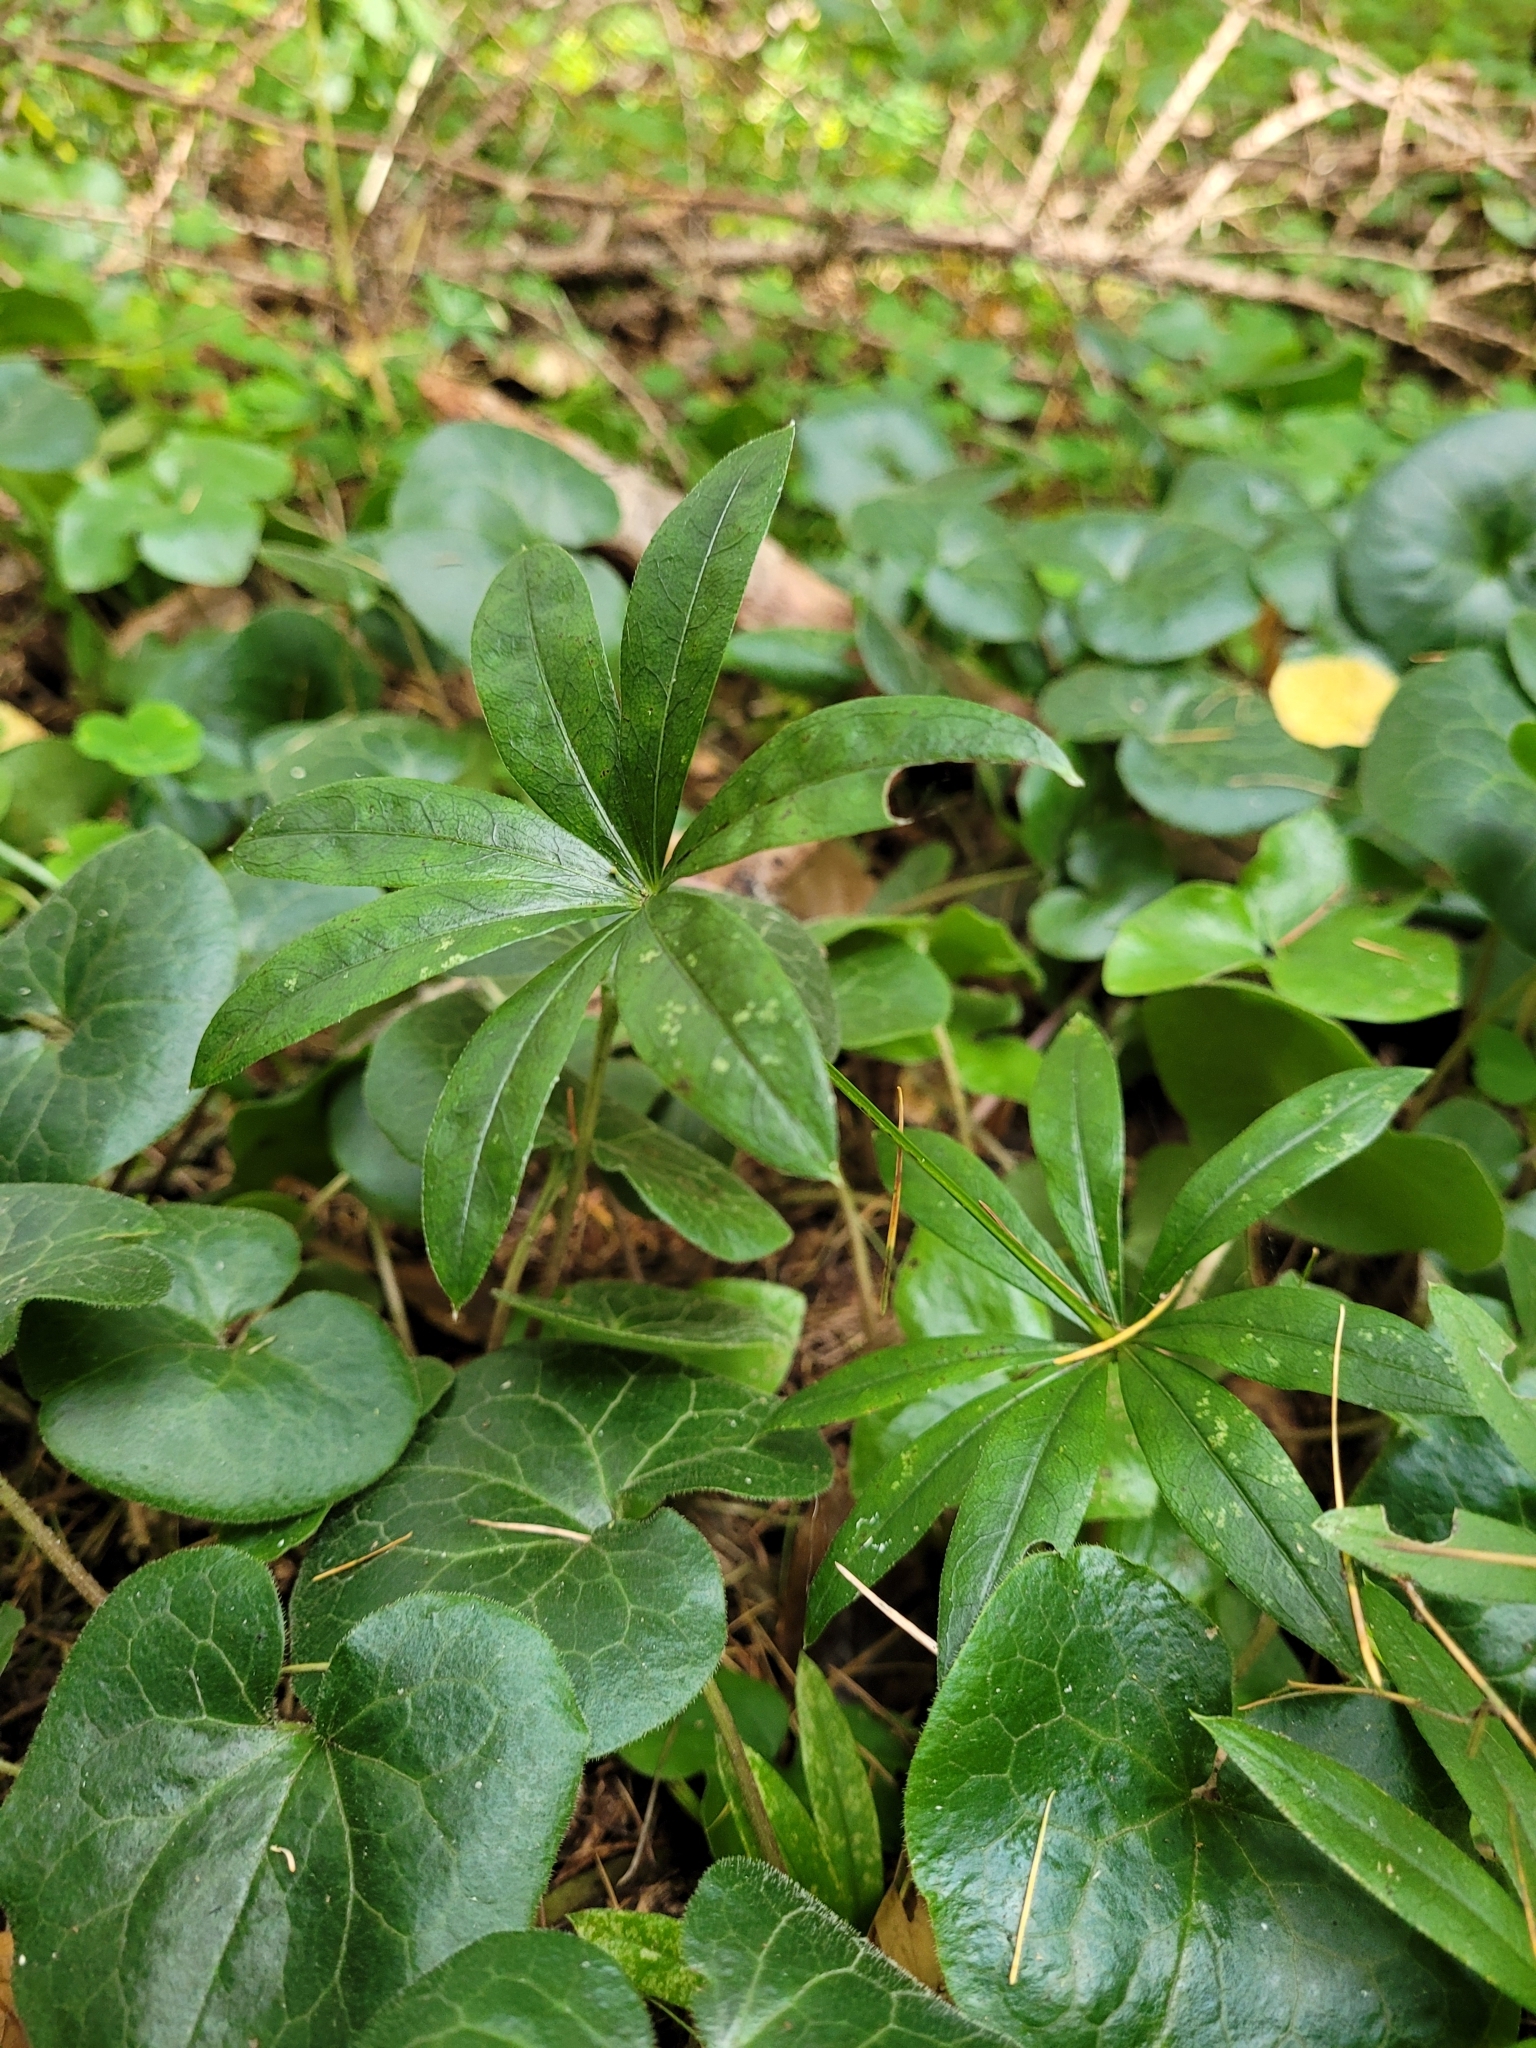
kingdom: Plantae
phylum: Tracheophyta
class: Magnoliopsida
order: Gentianales
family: Rubiaceae
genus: Galium
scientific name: Galium odoratum
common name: Sweet woodruff
